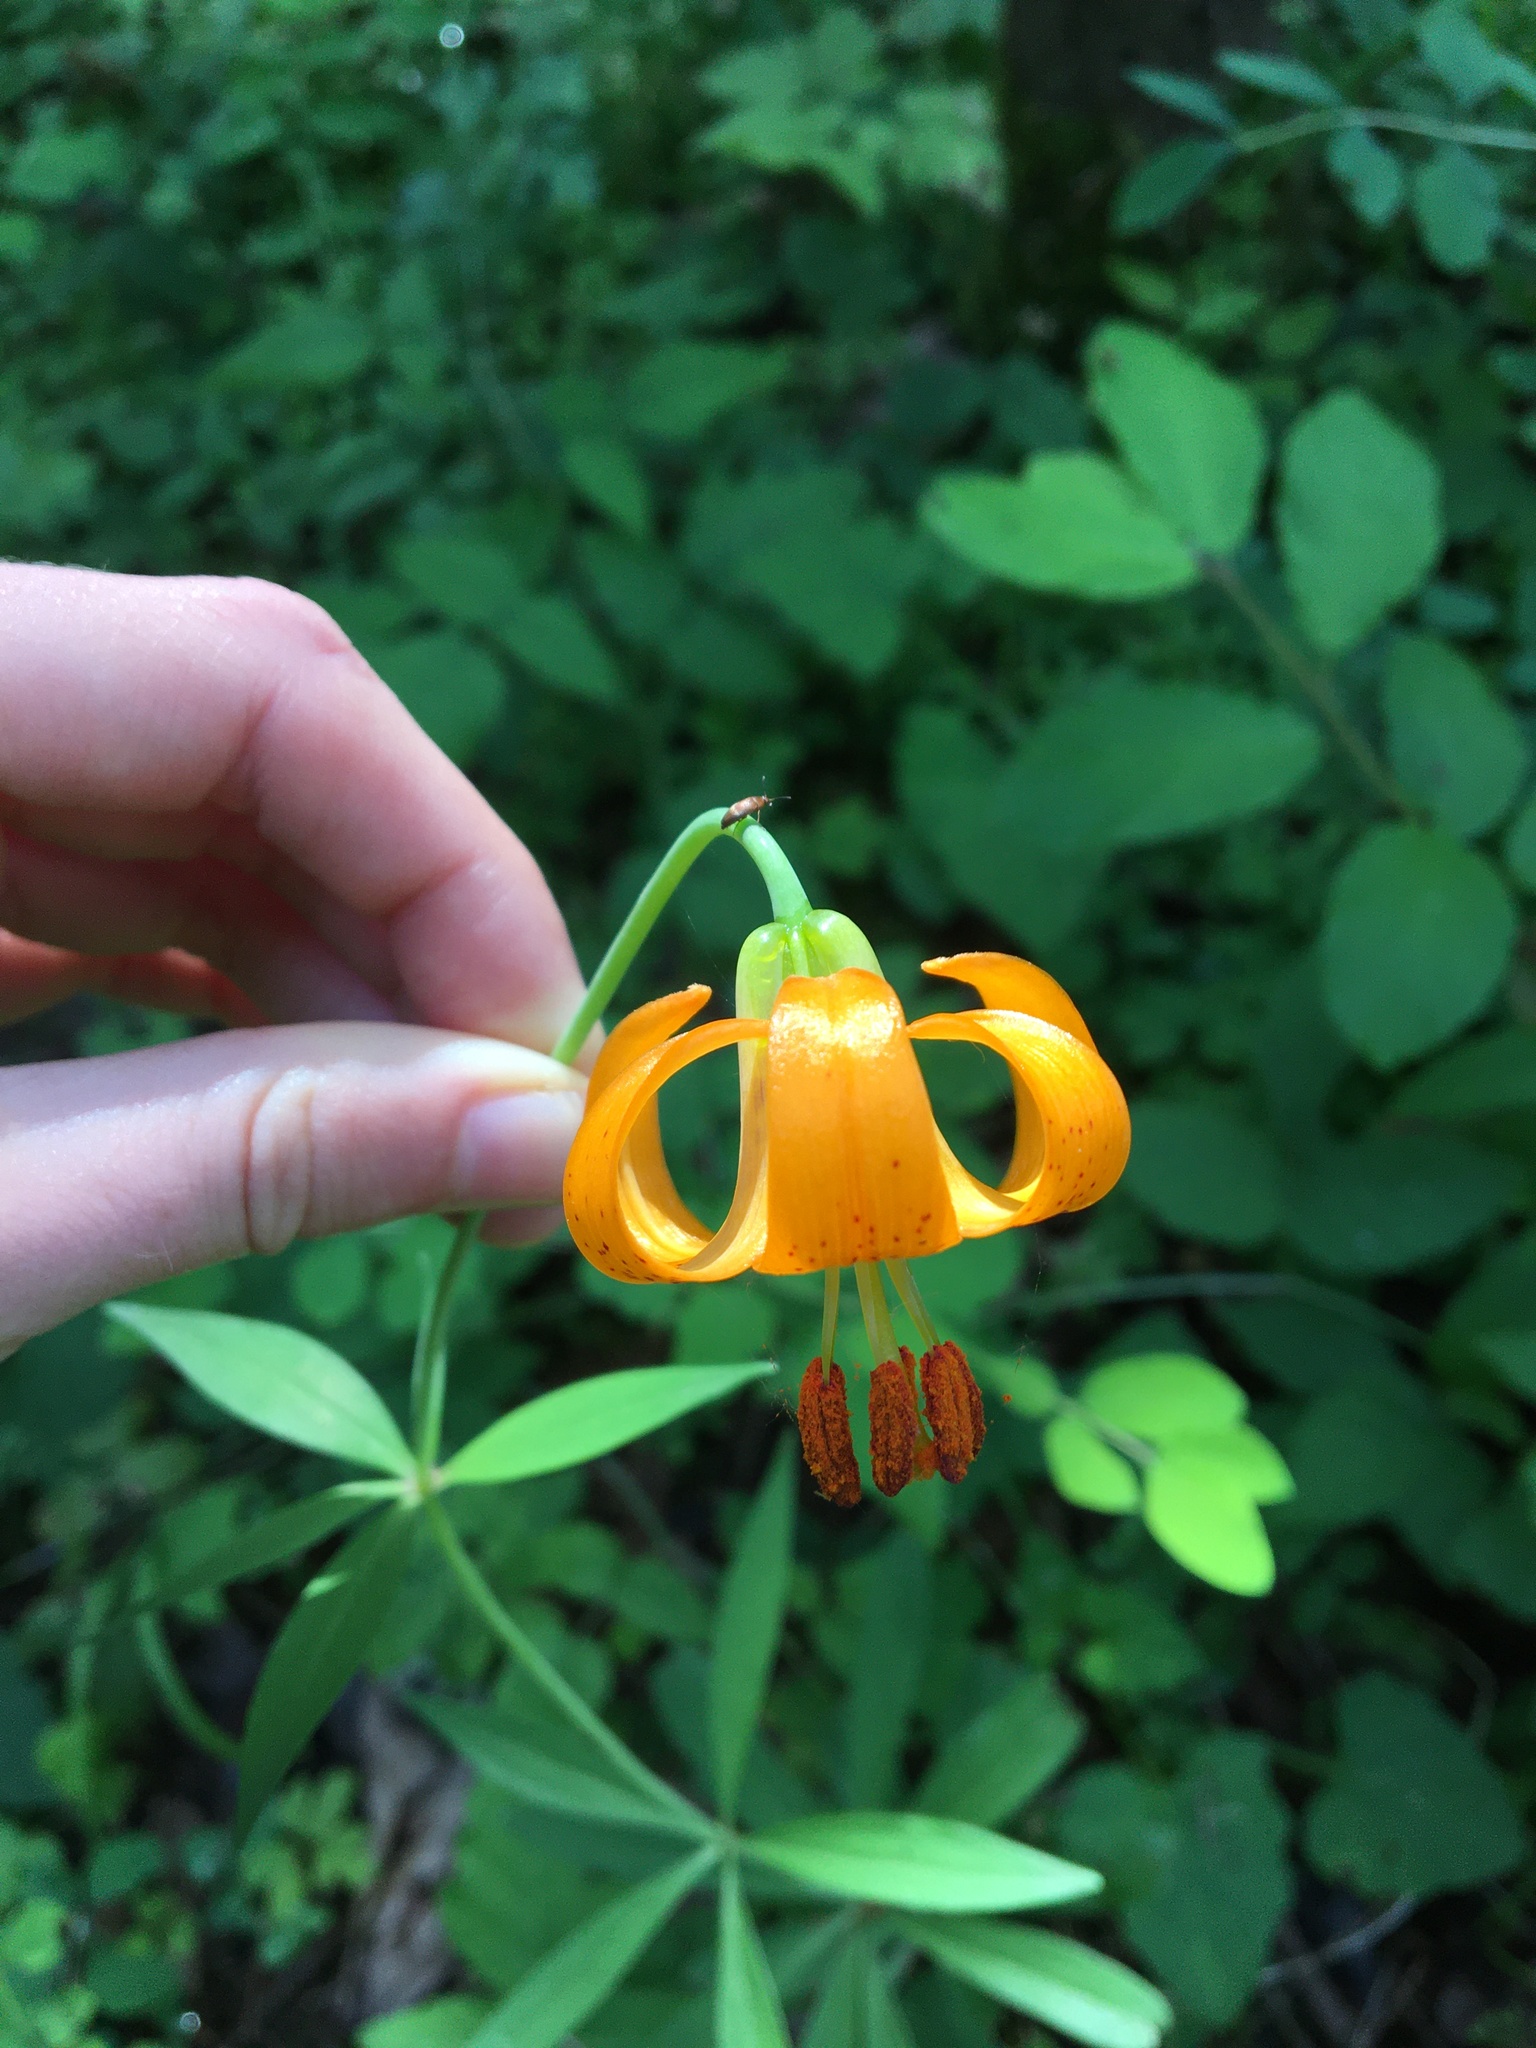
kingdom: Plantae
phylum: Tracheophyta
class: Liliopsida
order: Liliales
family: Liliaceae
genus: Lilium
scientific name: Lilium columbianum
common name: Columbia lily
